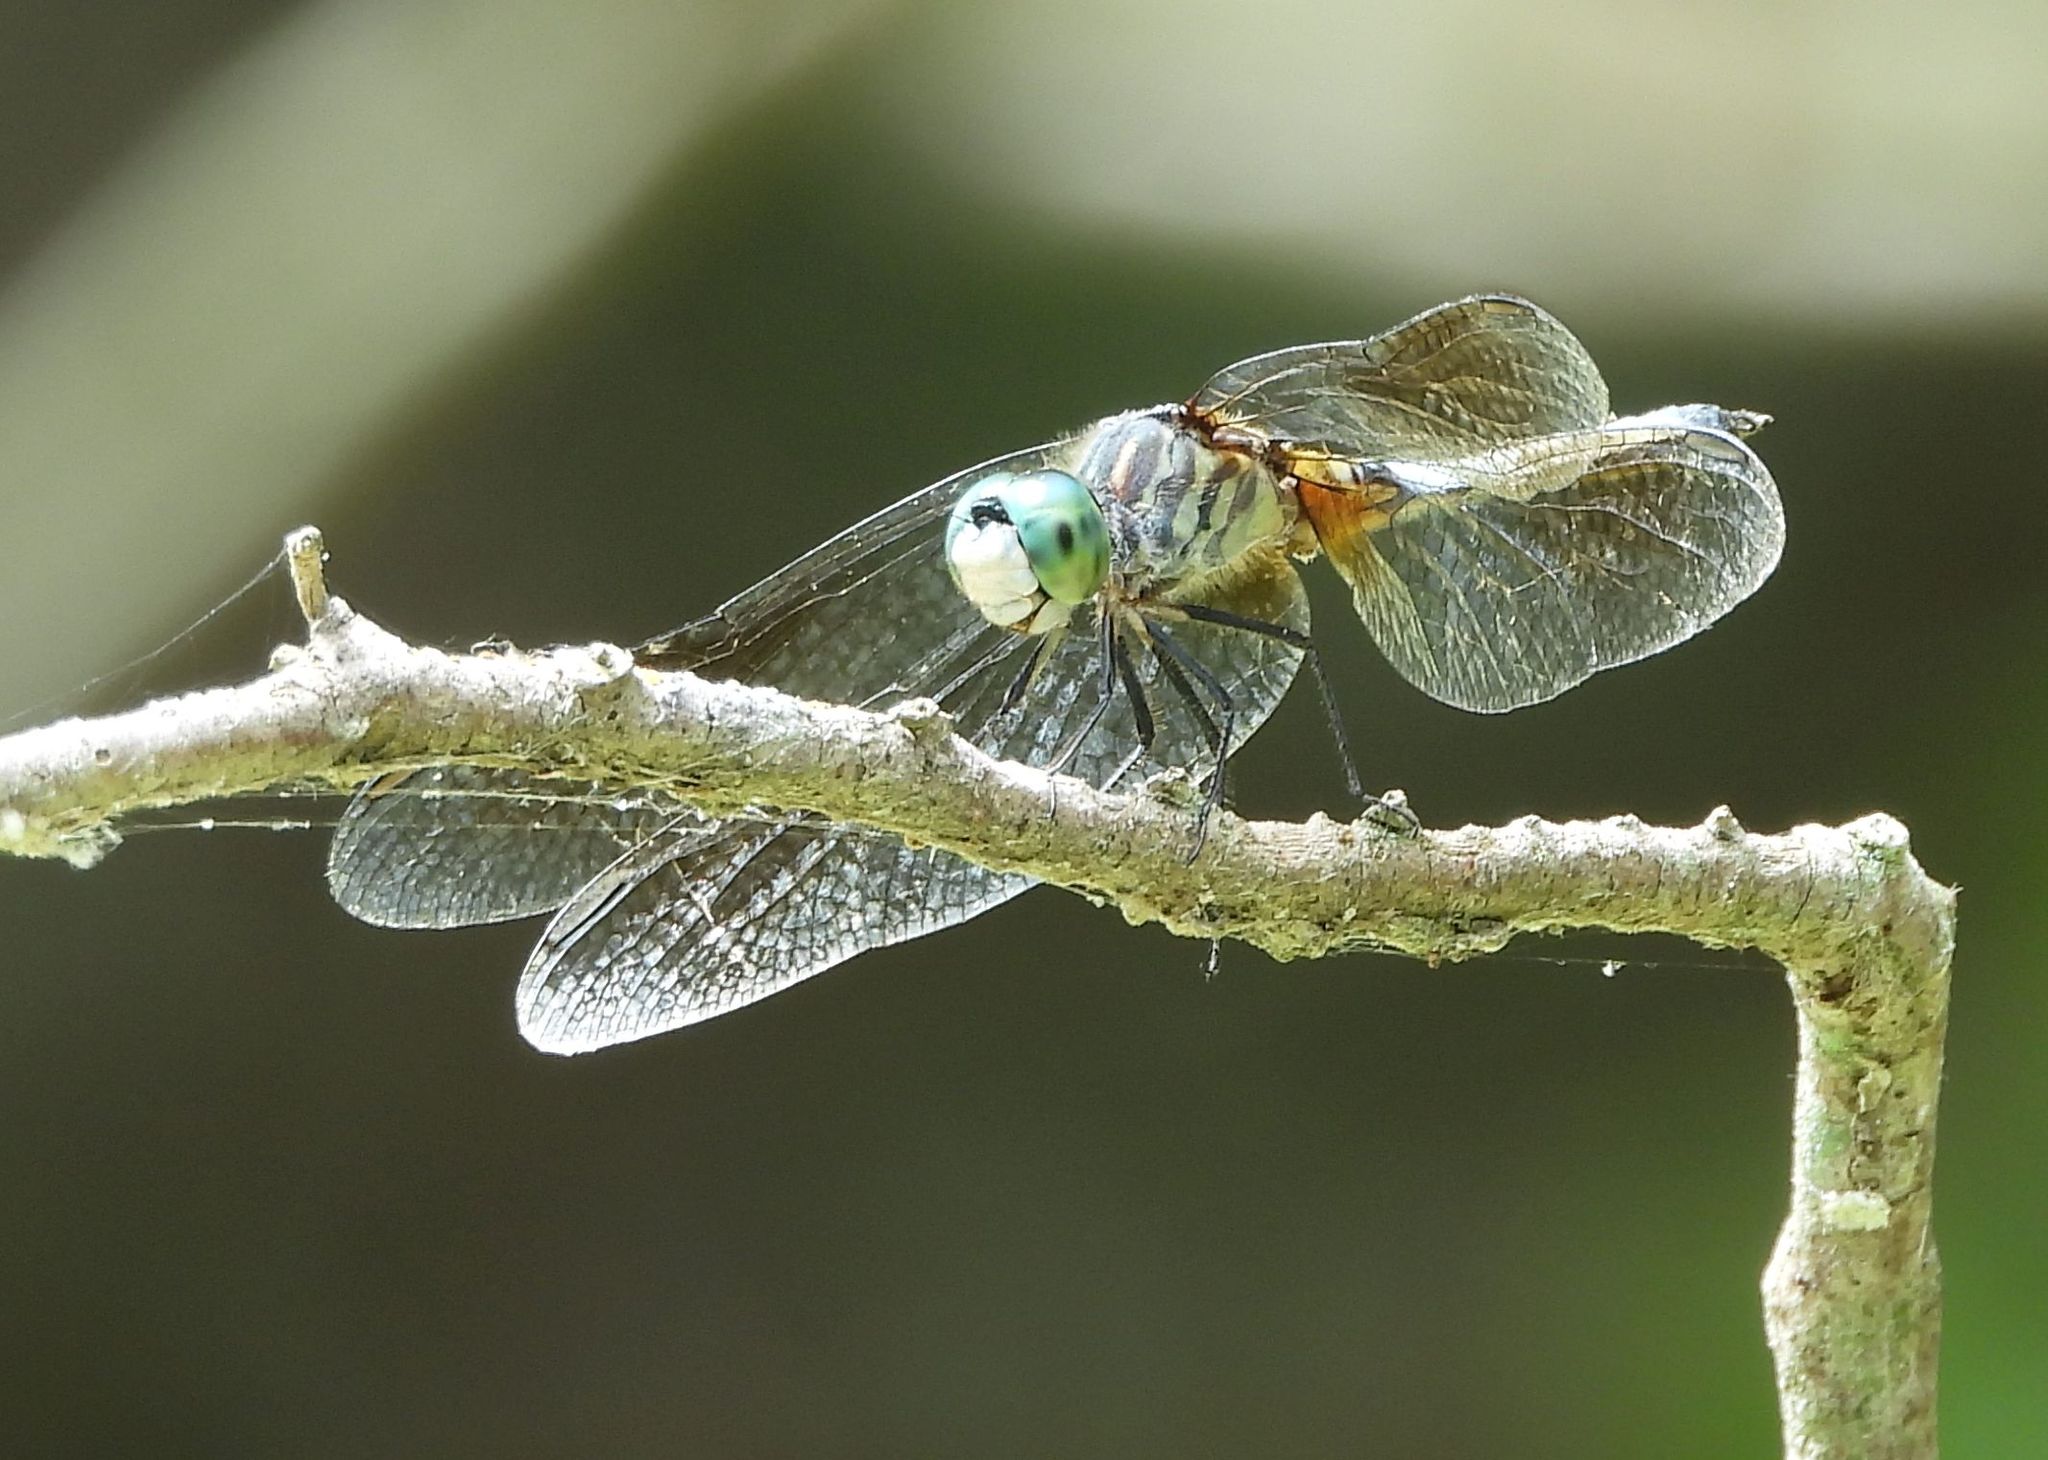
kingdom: Animalia
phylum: Arthropoda
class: Insecta
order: Odonata
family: Libellulidae
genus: Pachydiplax
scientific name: Pachydiplax longipennis
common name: Blue dasher
